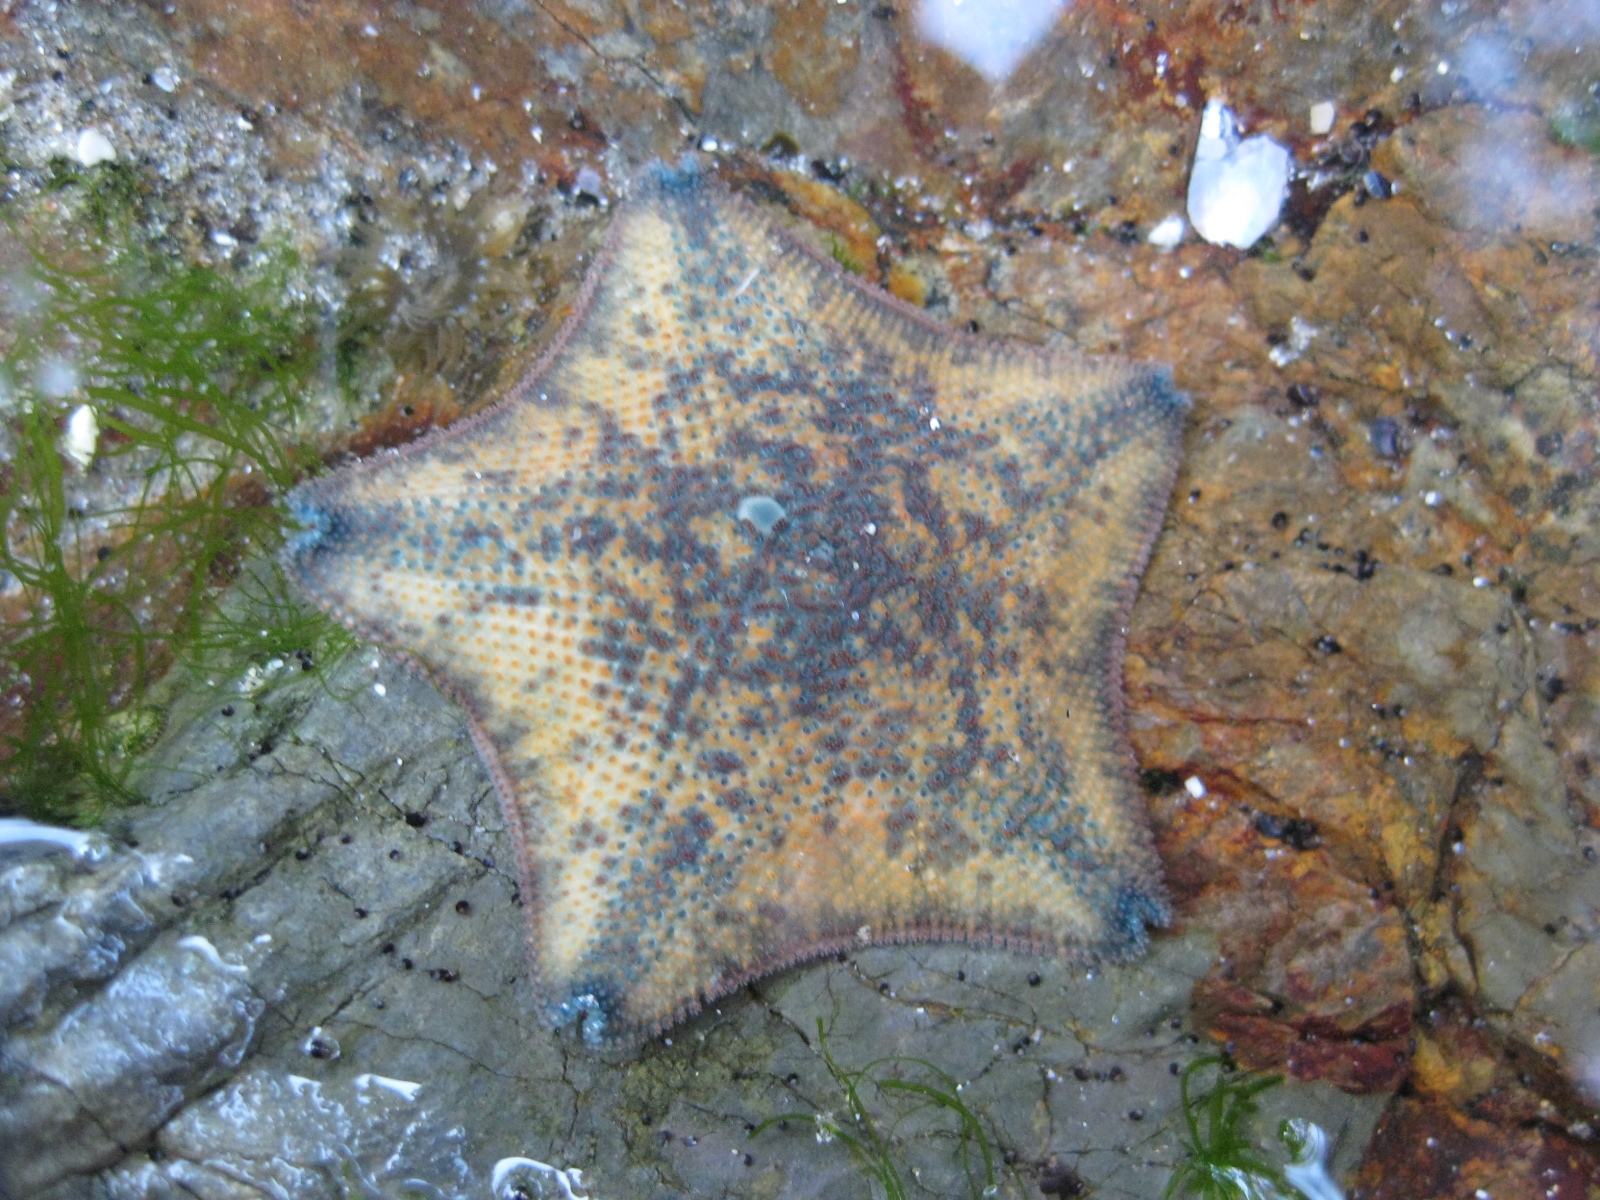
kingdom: Animalia
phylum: Echinodermata
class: Asteroidea
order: Valvatida
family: Asterinidae
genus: Meridiastra
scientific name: Meridiastra mortenseni
